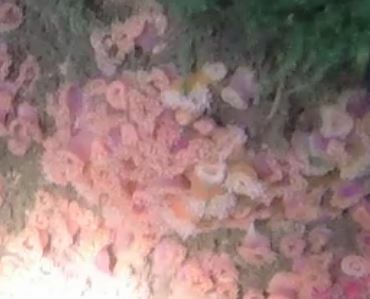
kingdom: Animalia
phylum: Cnidaria
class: Anthozoa
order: Corallimorpharia
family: Corallimorphidae
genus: Corynactis
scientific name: Corynactis californica
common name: Strawberry corallimorpharian
